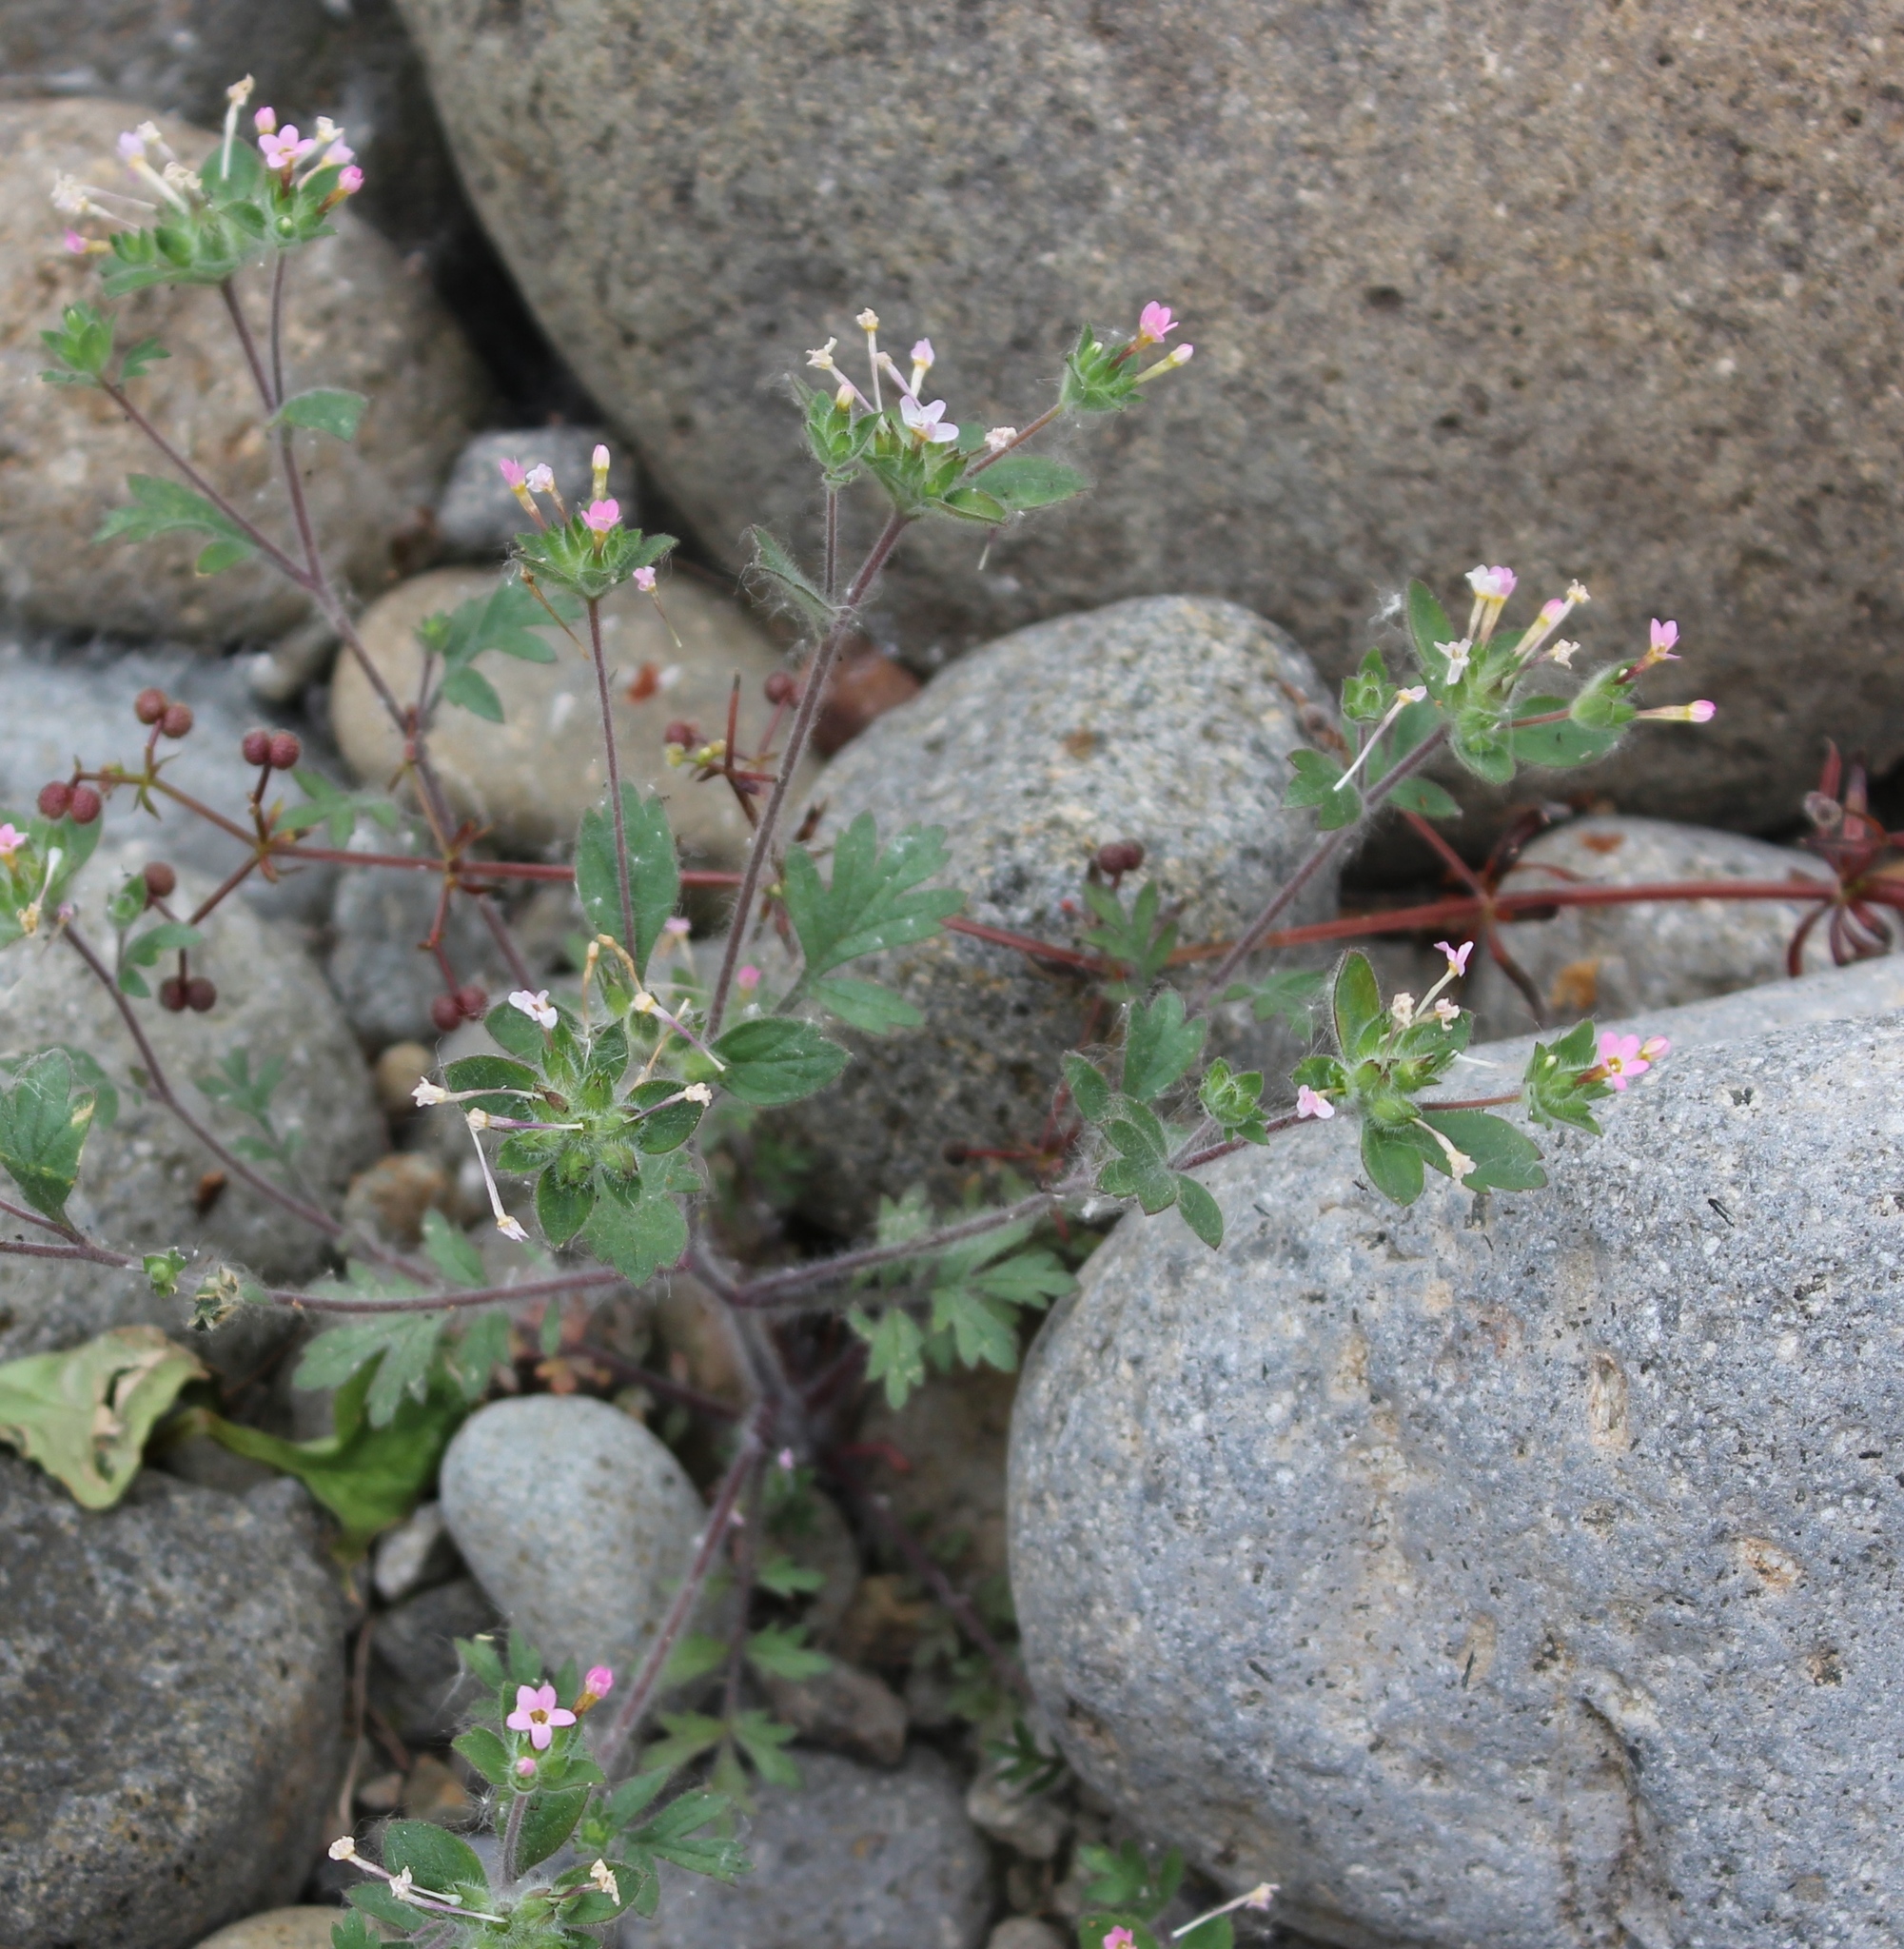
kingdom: Plantae
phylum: Tracheophyta
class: Magnoliopsida
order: Ericales
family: Polemoniaceae
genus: Collomia
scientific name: Collomia heterophylla
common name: Variable-leaved collomia
